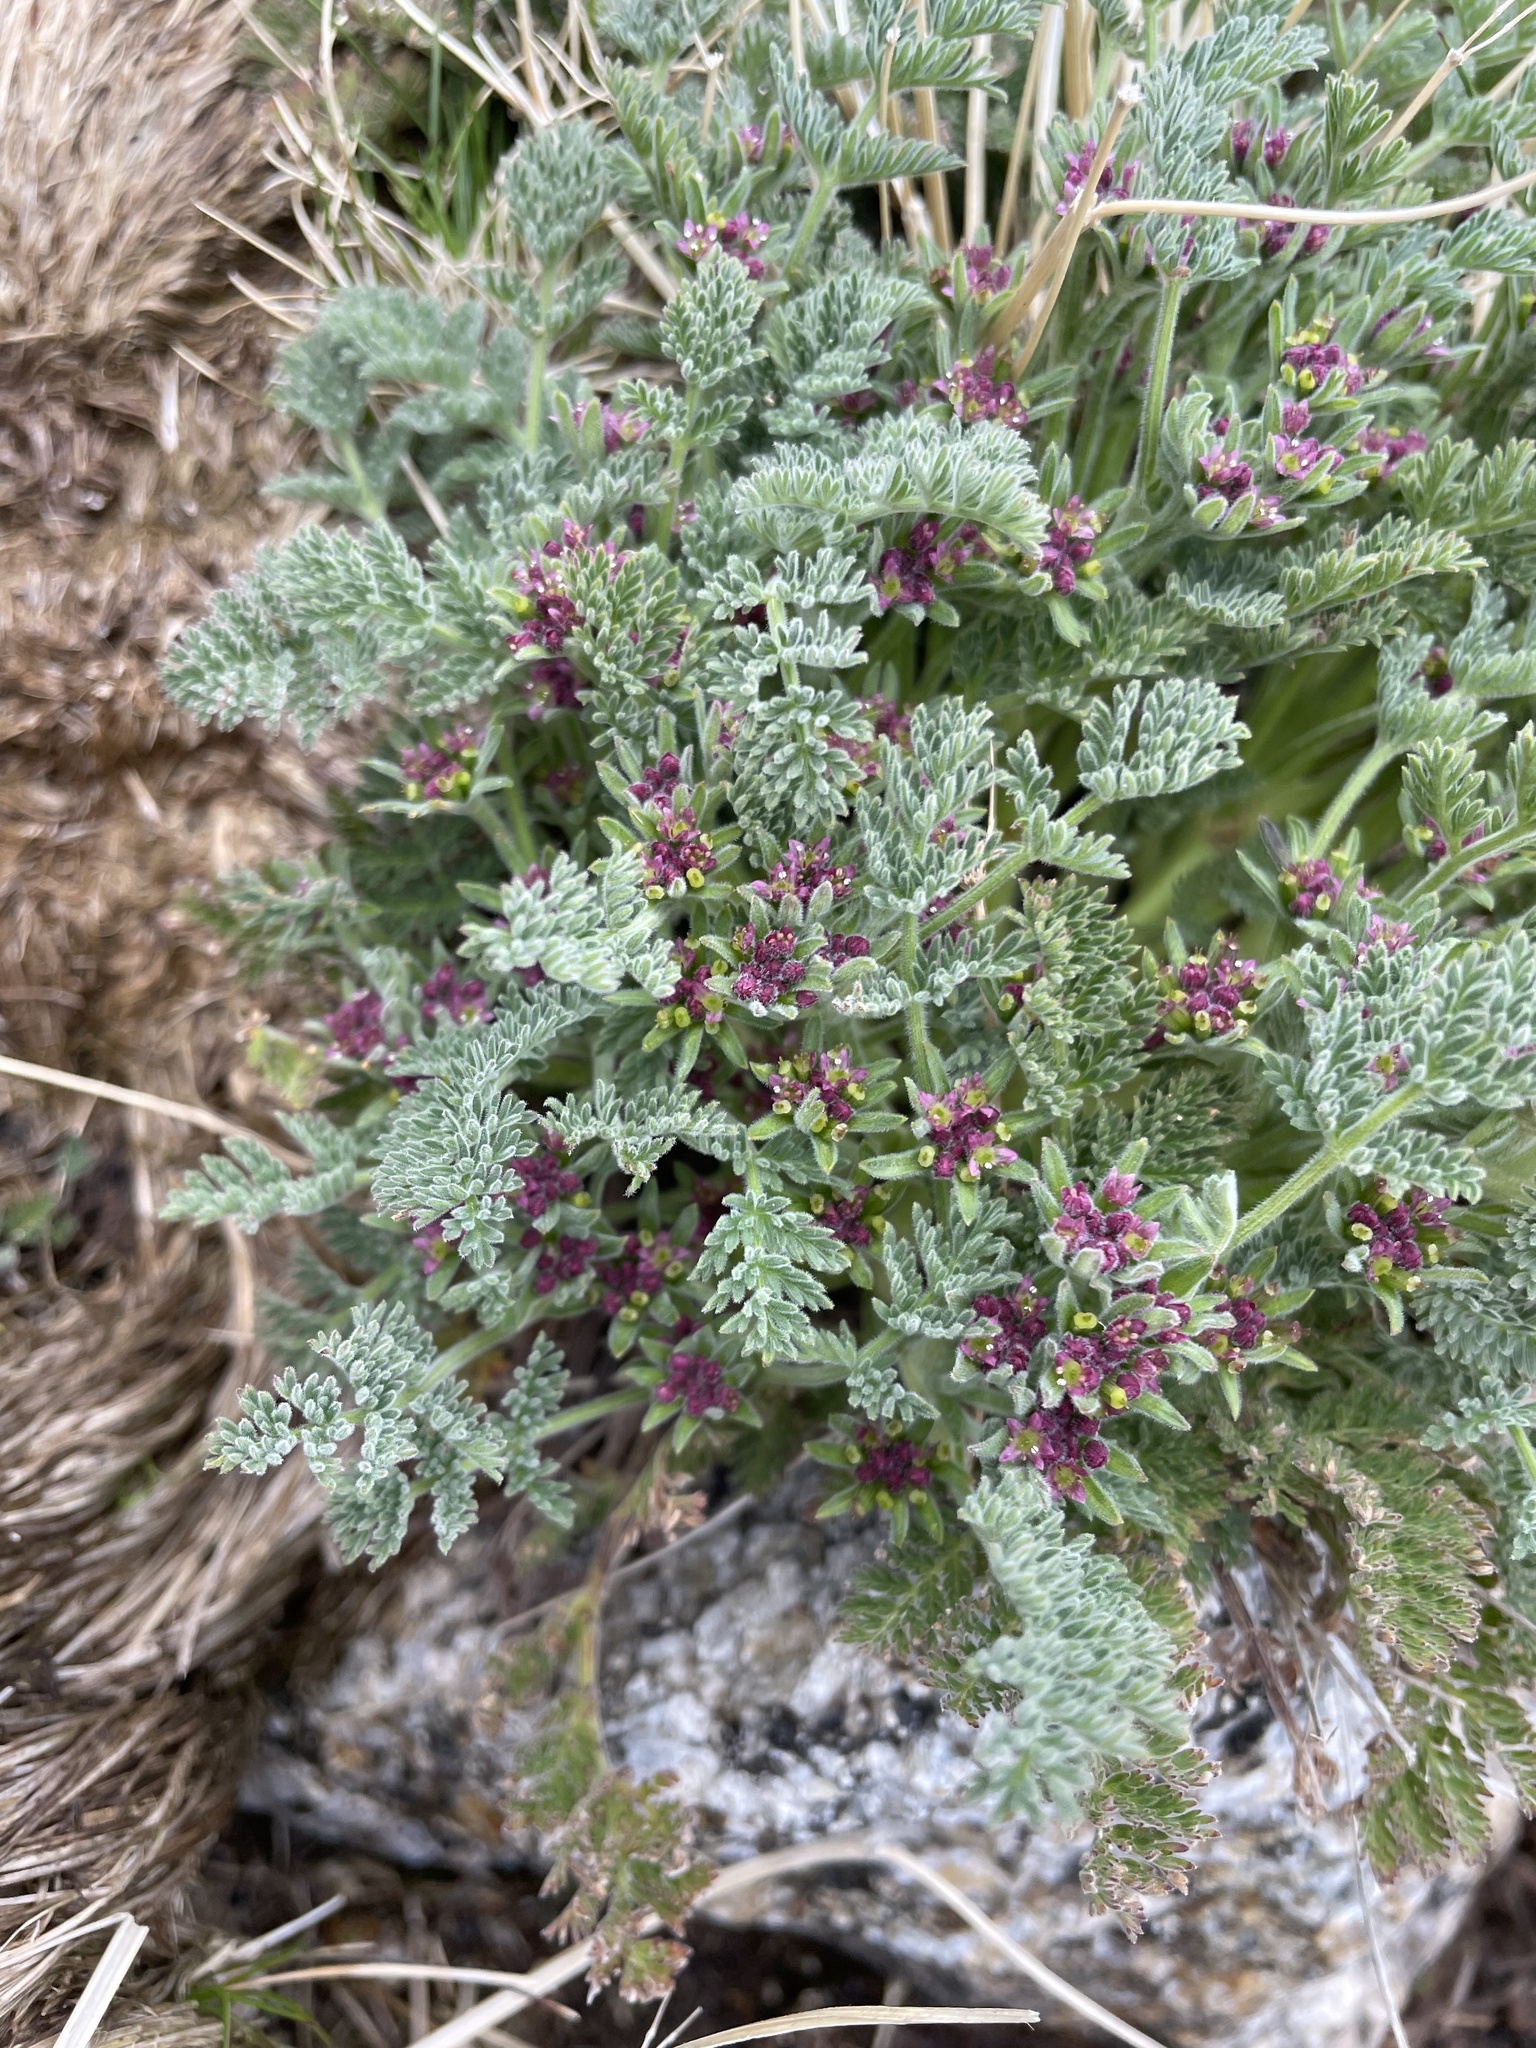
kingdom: Plantae
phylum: Tracheophyta
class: Magnoliopsida
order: Apiales
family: Apiaceae
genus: Chaerophyllum
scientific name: Chaerophyllum brevipes
